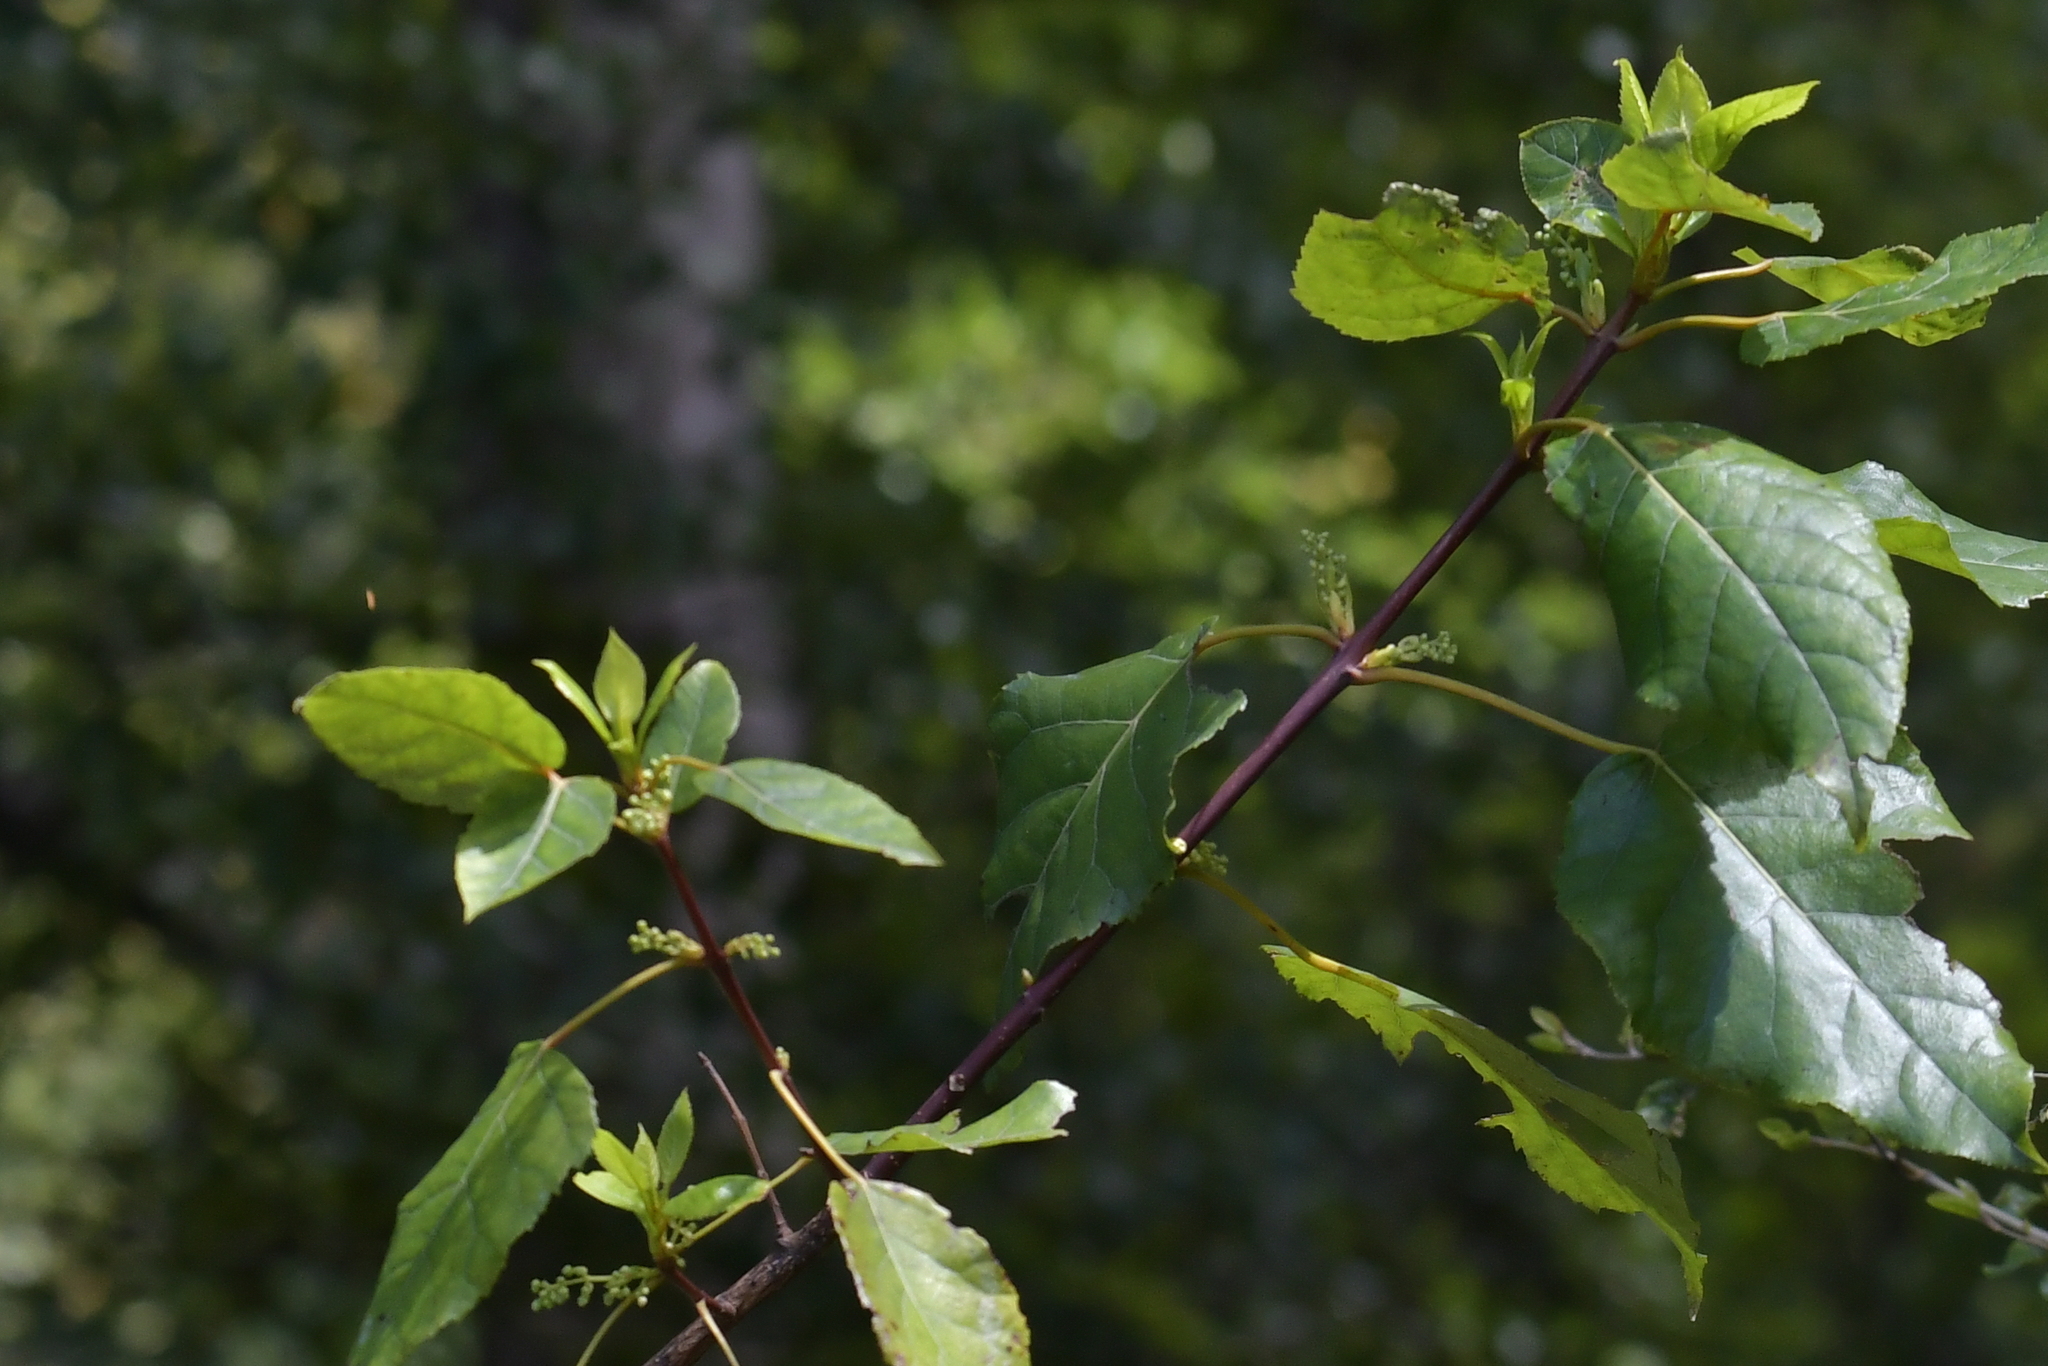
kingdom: Plantae
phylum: Tracheophyta
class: Magnoliopsida
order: Oxalidales
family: Elaeocarpaceae
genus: Aristotelia
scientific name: Aristotelia serrata
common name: New zealand wineberry
